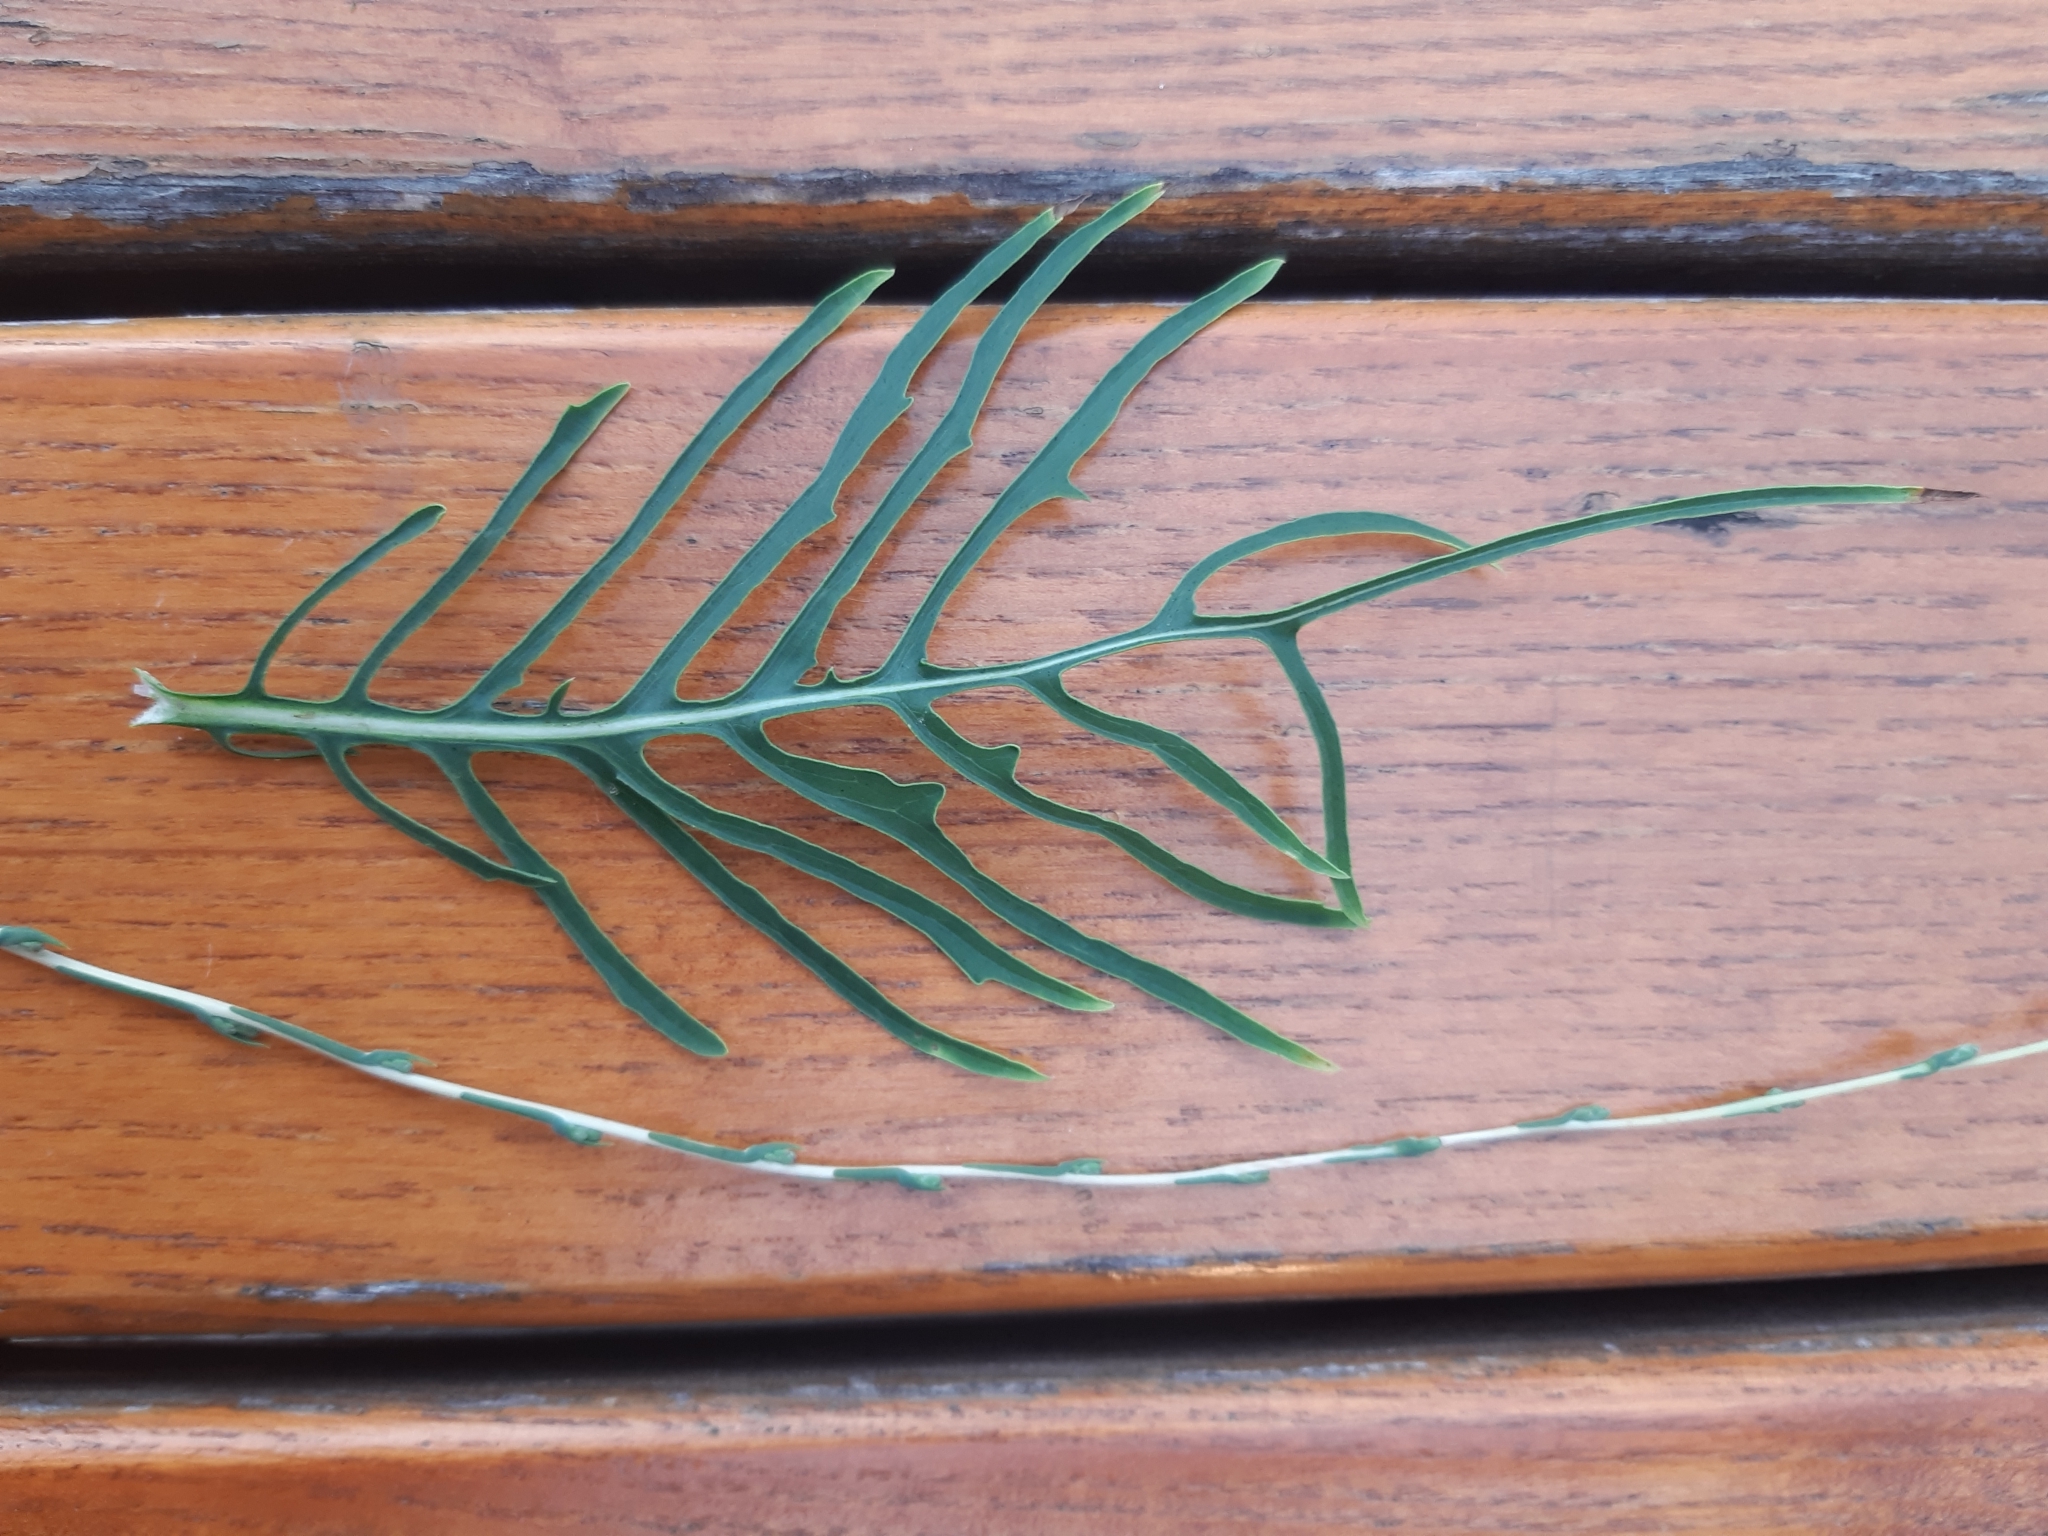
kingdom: Plantae
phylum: Tracheophyta
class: Magnoliopsida
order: Asterales
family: Asteraceae
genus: Lactuca
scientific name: Lactuca viminea
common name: Pliant lettuce
